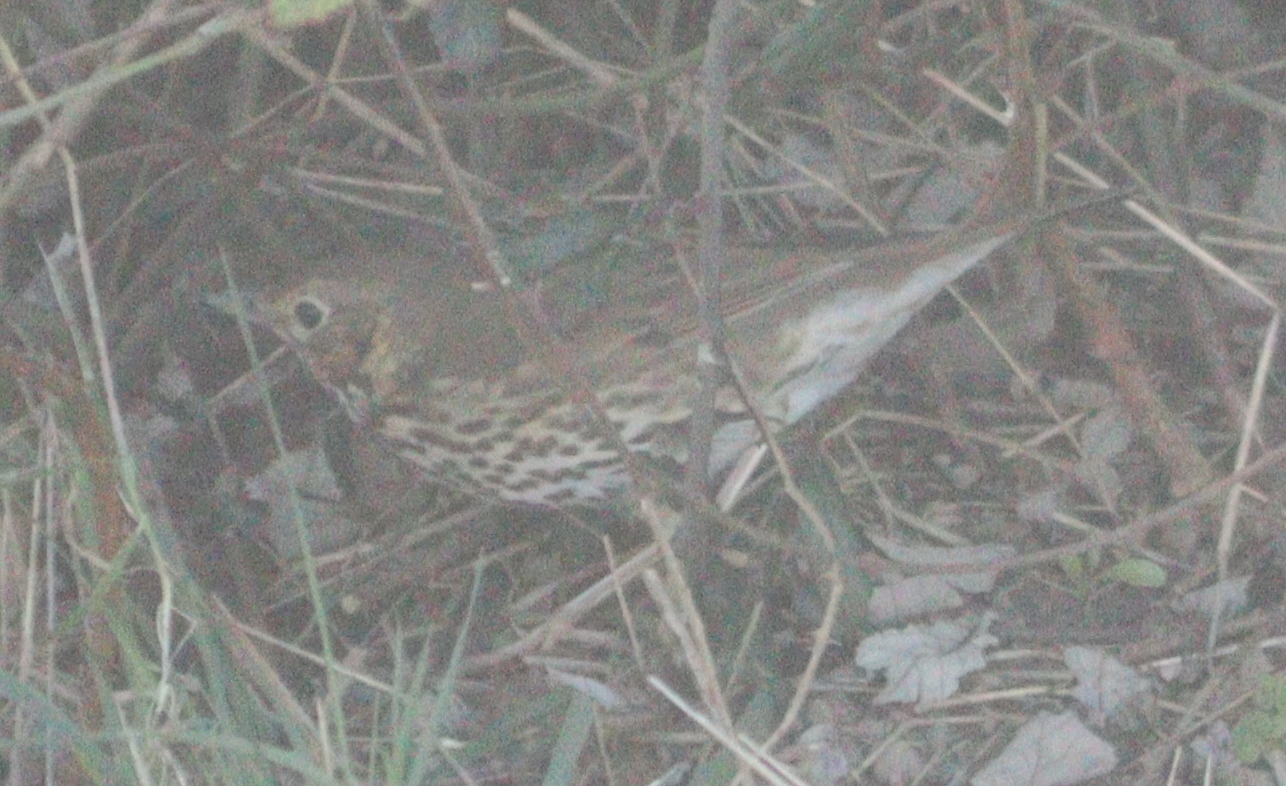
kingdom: Animalia
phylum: Chordata
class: Aves
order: Passeriformes
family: Turdidae
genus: Turdus
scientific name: Turdus philomelos
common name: Song thrush
